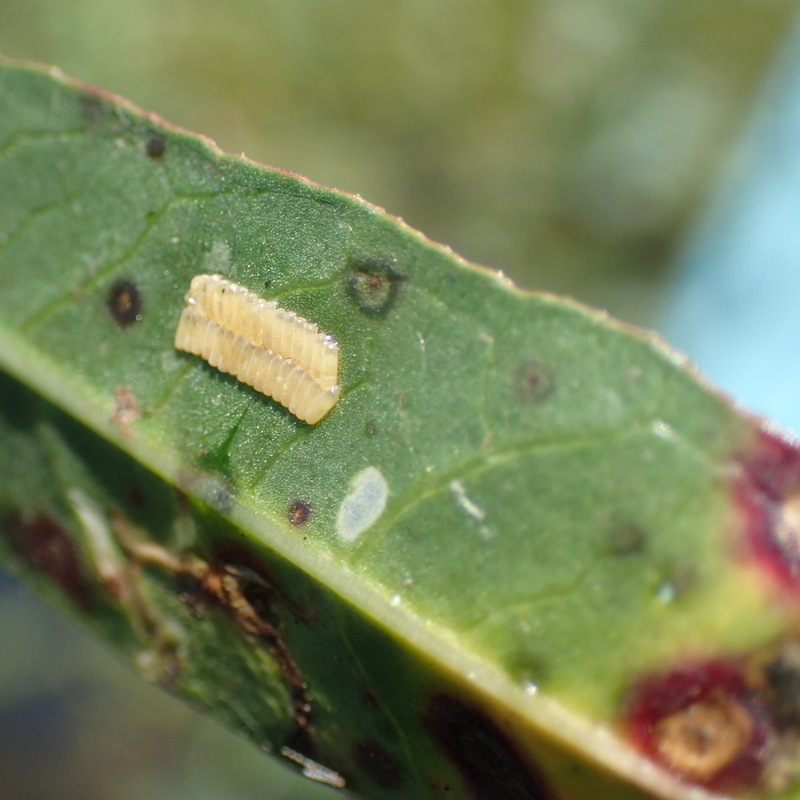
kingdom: Animalia
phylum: Arthropoda
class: Insecta
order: Coleoptera
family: Chrysomelidae
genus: Agasicles
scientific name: Agasicles hygrophila
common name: Alligatorweed flea beetle
